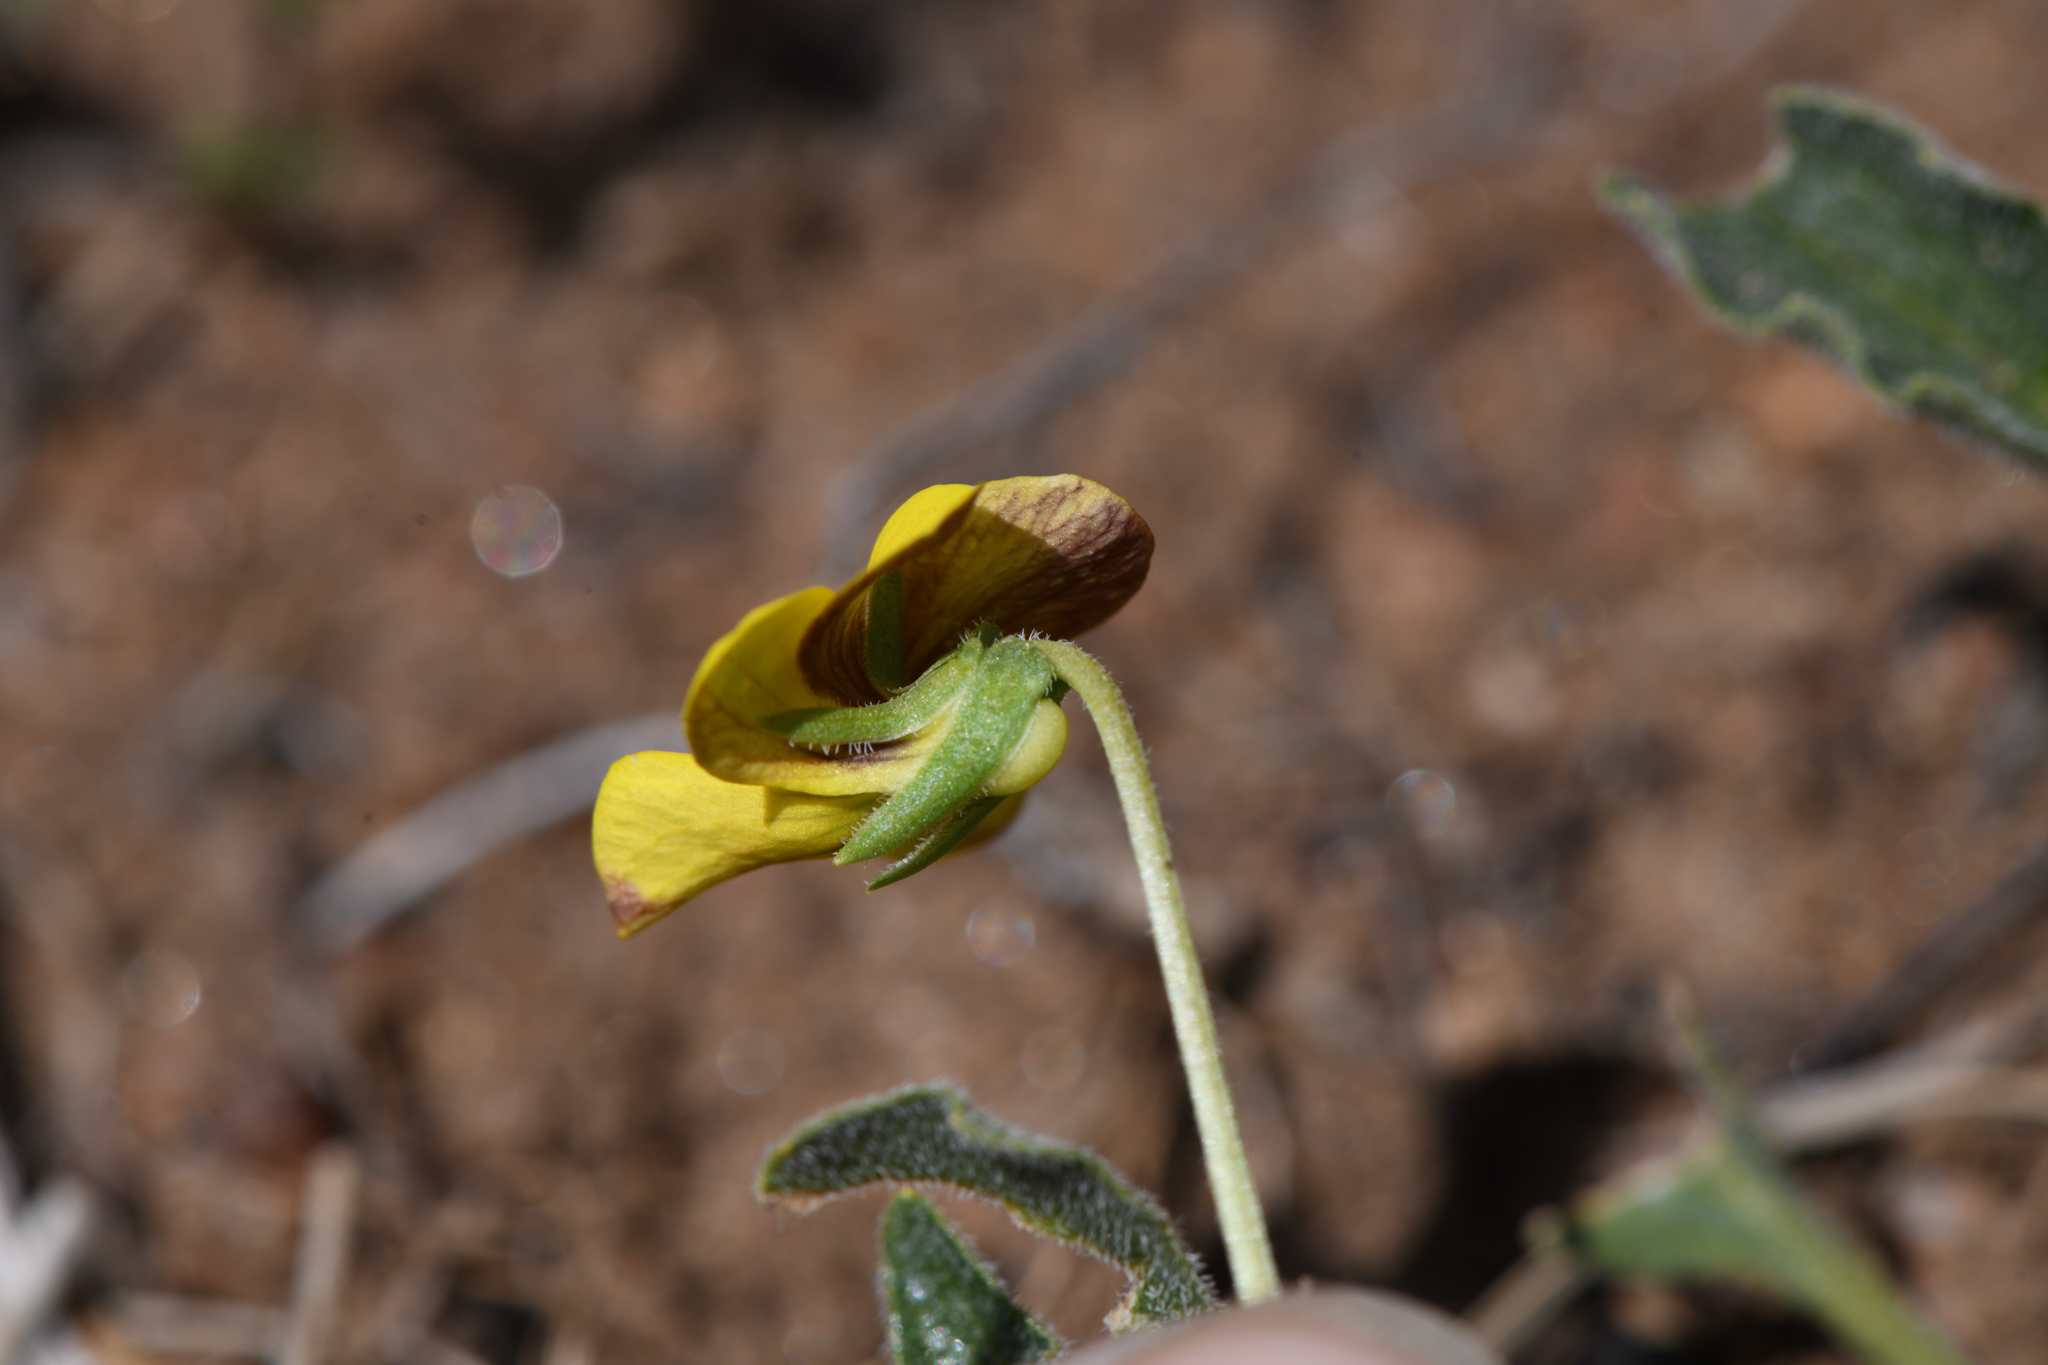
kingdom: Plantae
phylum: Tracheophyta
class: Magnoliopsida
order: Malpighiales
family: Violaceae
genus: Viola
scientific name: Viola pinetorum
